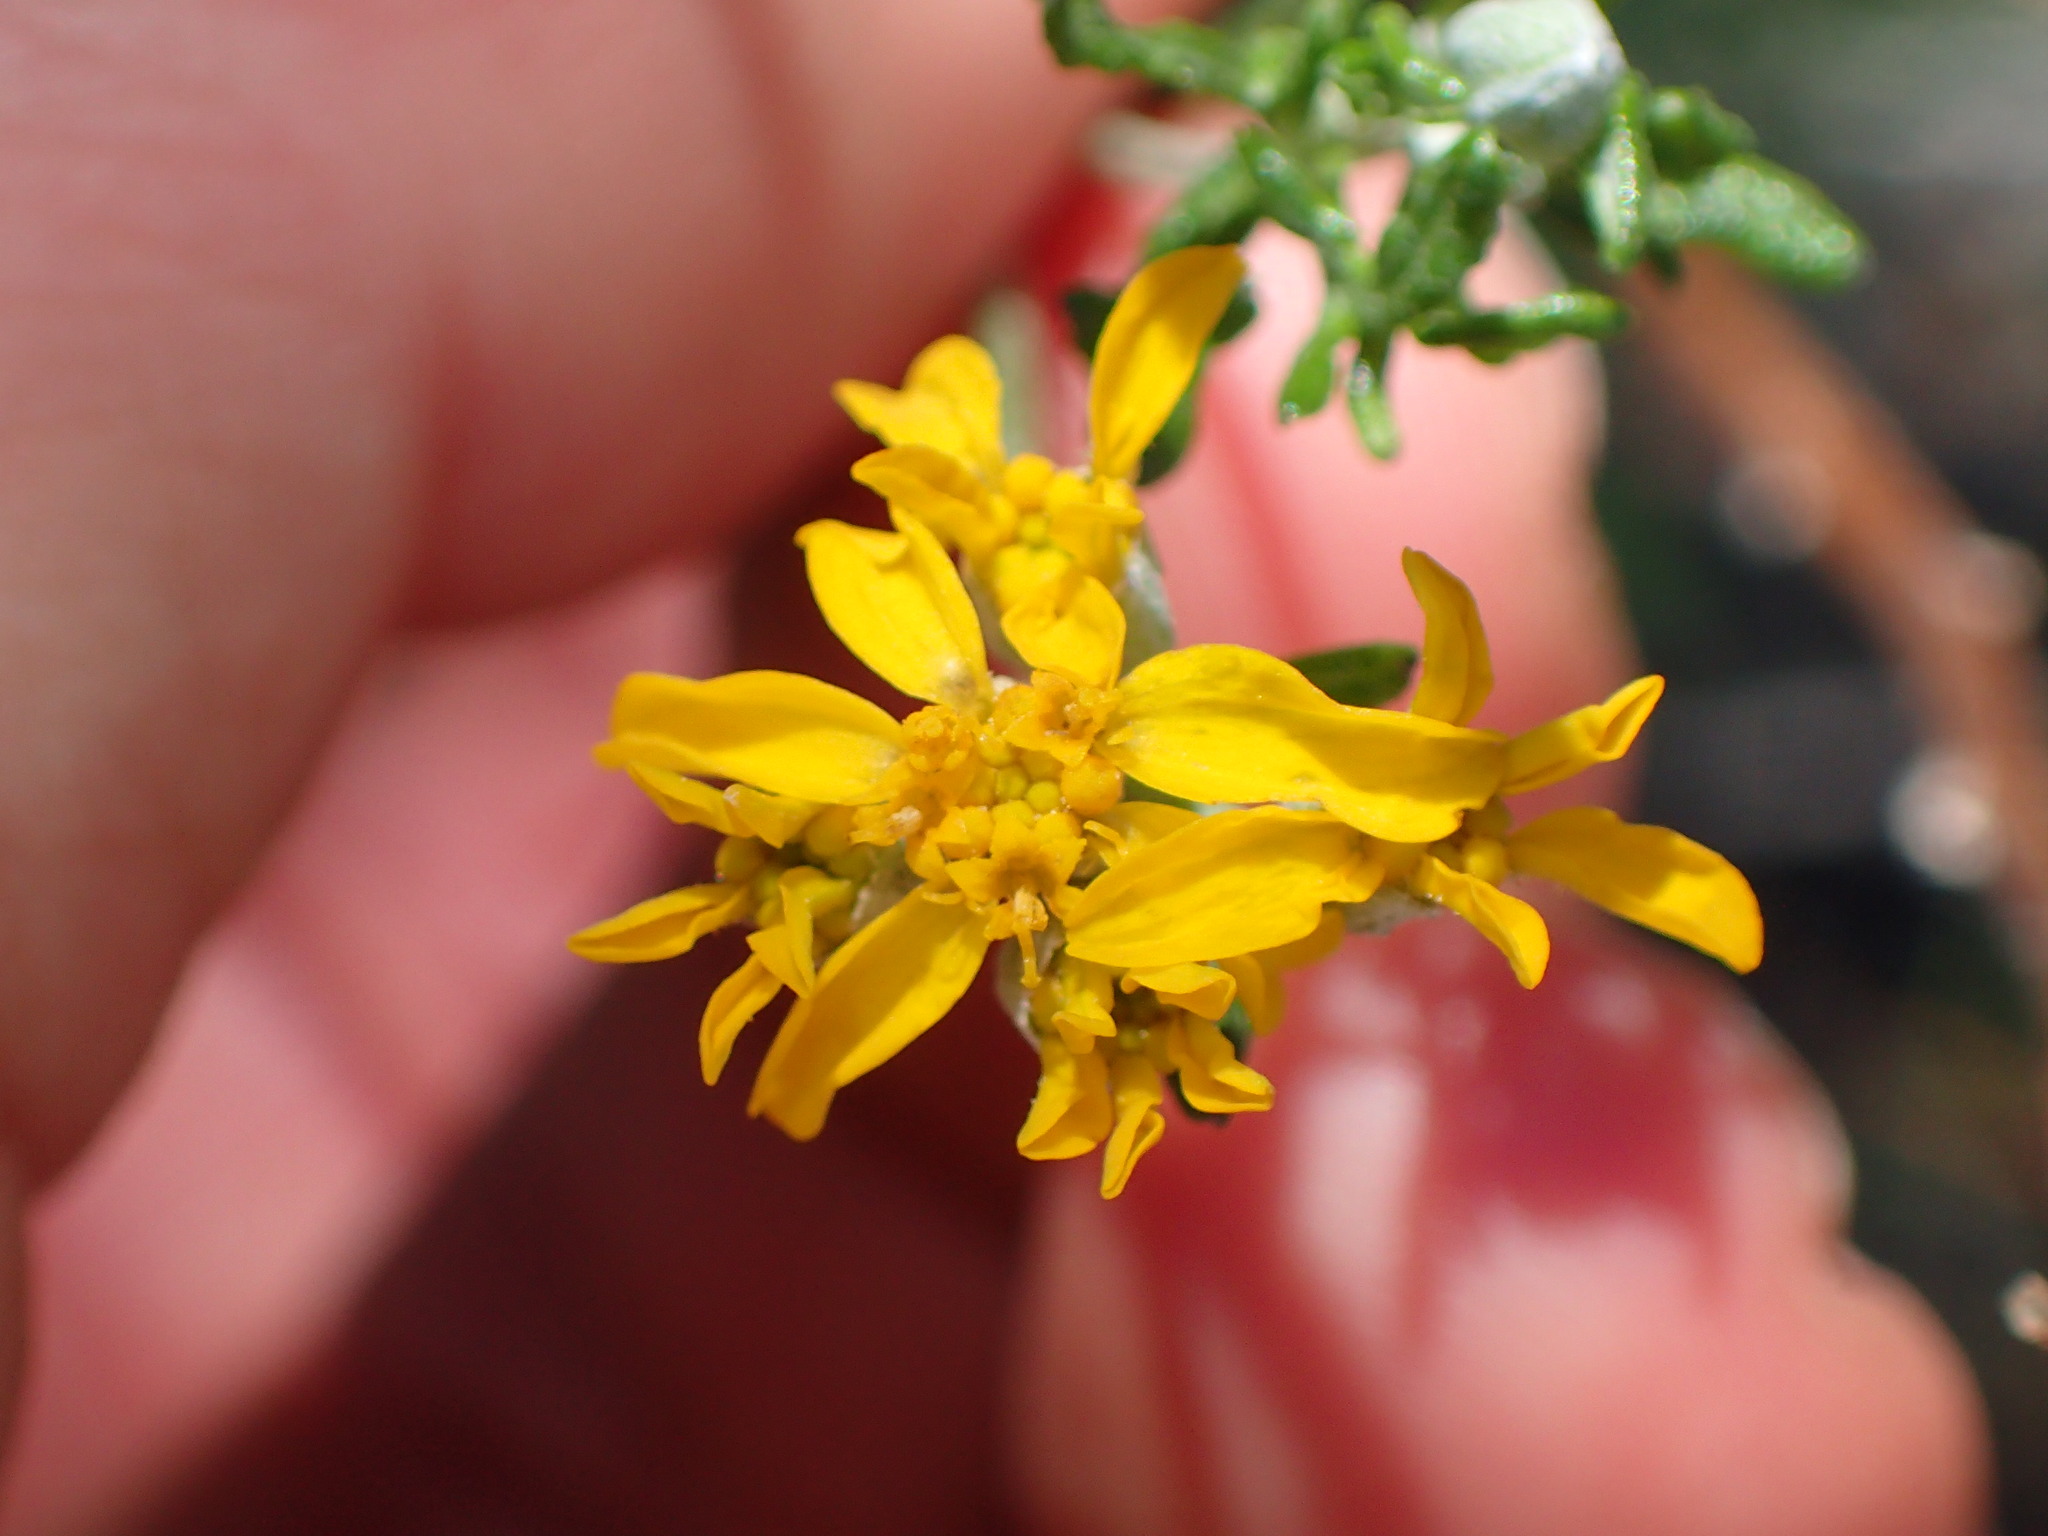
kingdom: Plantae
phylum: Tracheophyta
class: Magnoliopsida
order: Asterales
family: Asteraceae
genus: Eriophyllum
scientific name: Eriophyllum confertiflorum
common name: Golden-yarrow
